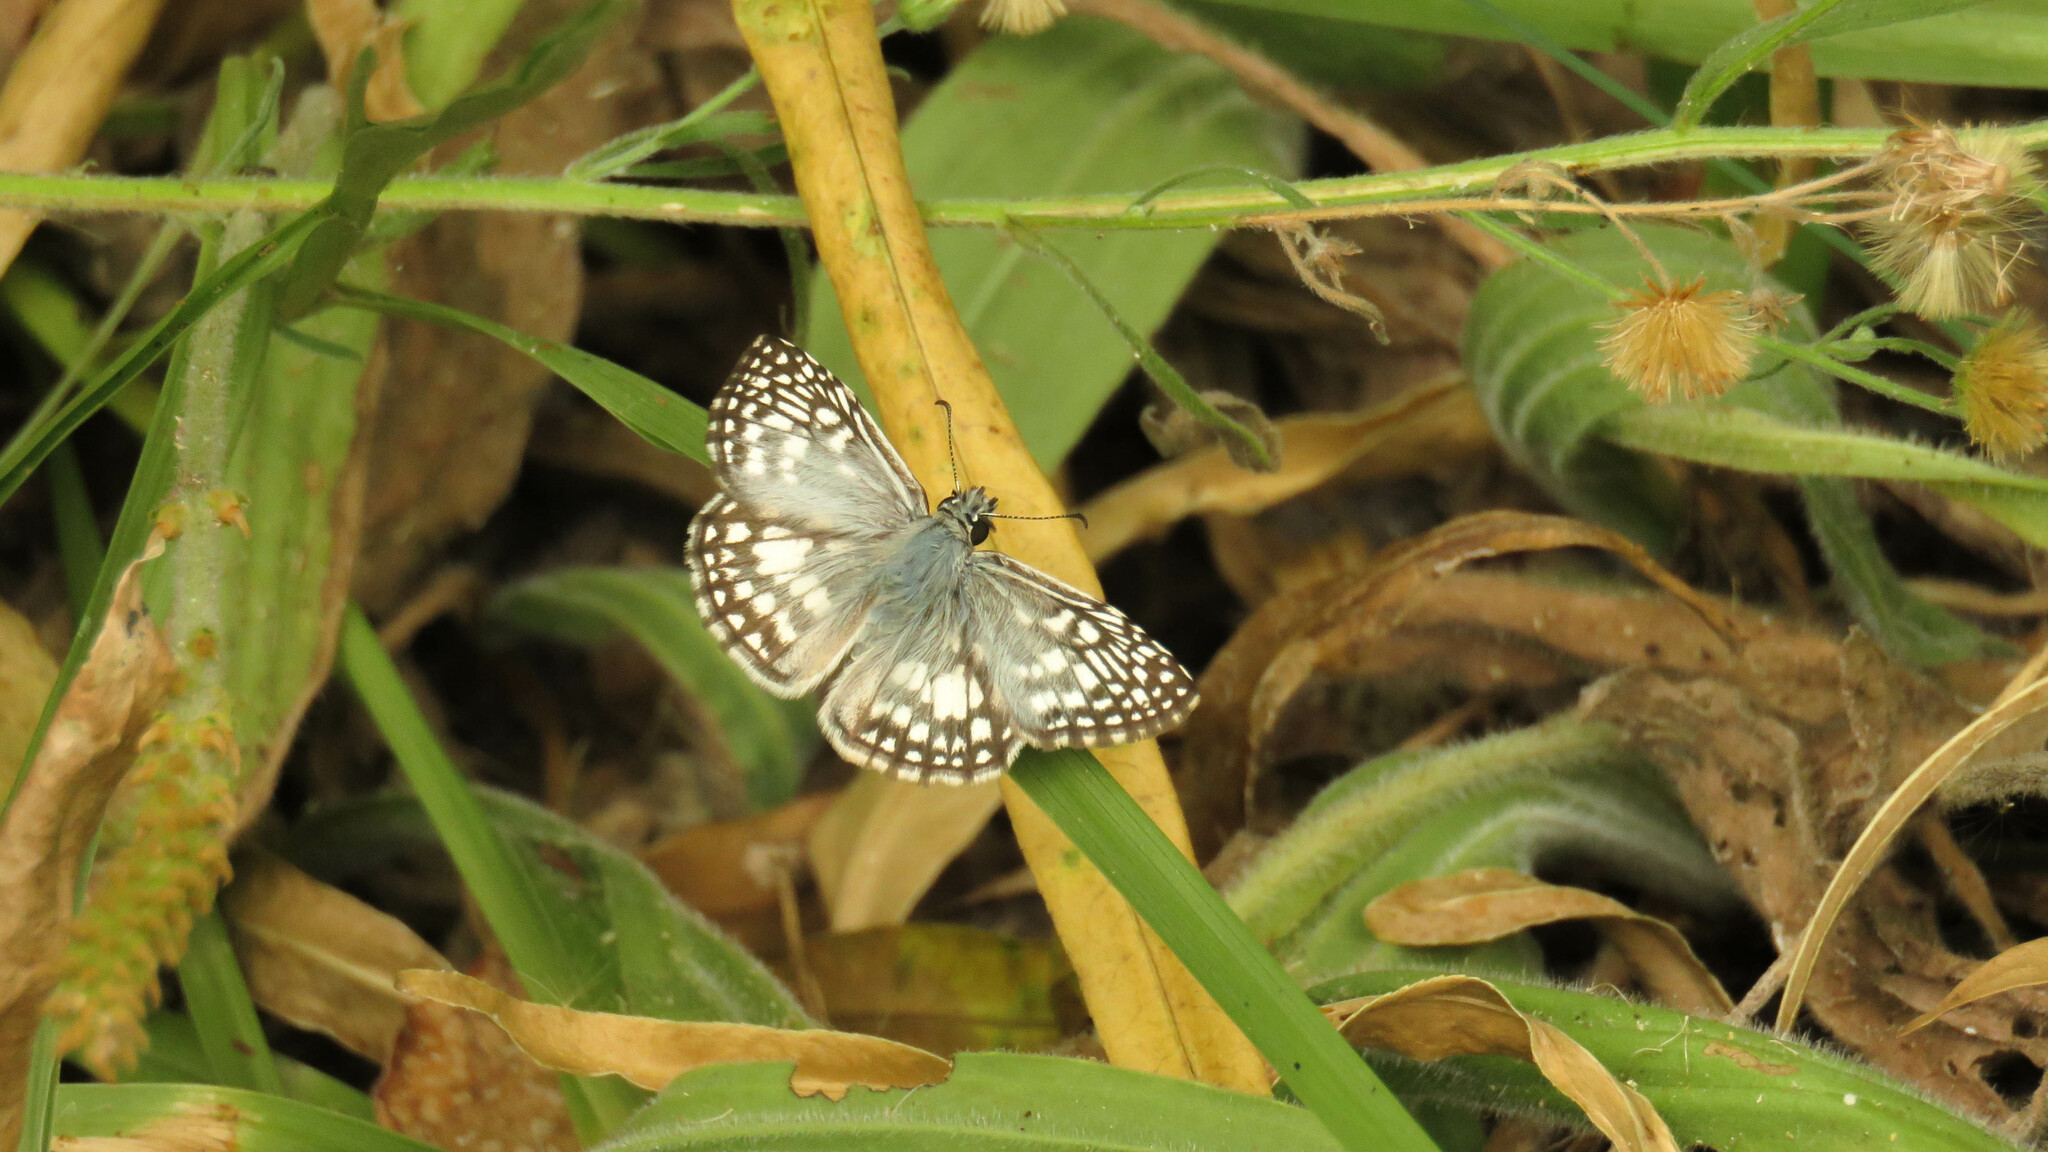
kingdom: Animalia
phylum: Arthropoda
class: Insecta
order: Lepidoptera
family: Hesperiidae
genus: Pyrgus
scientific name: Pyrgus oileus
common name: Tropical checkered-skipper
